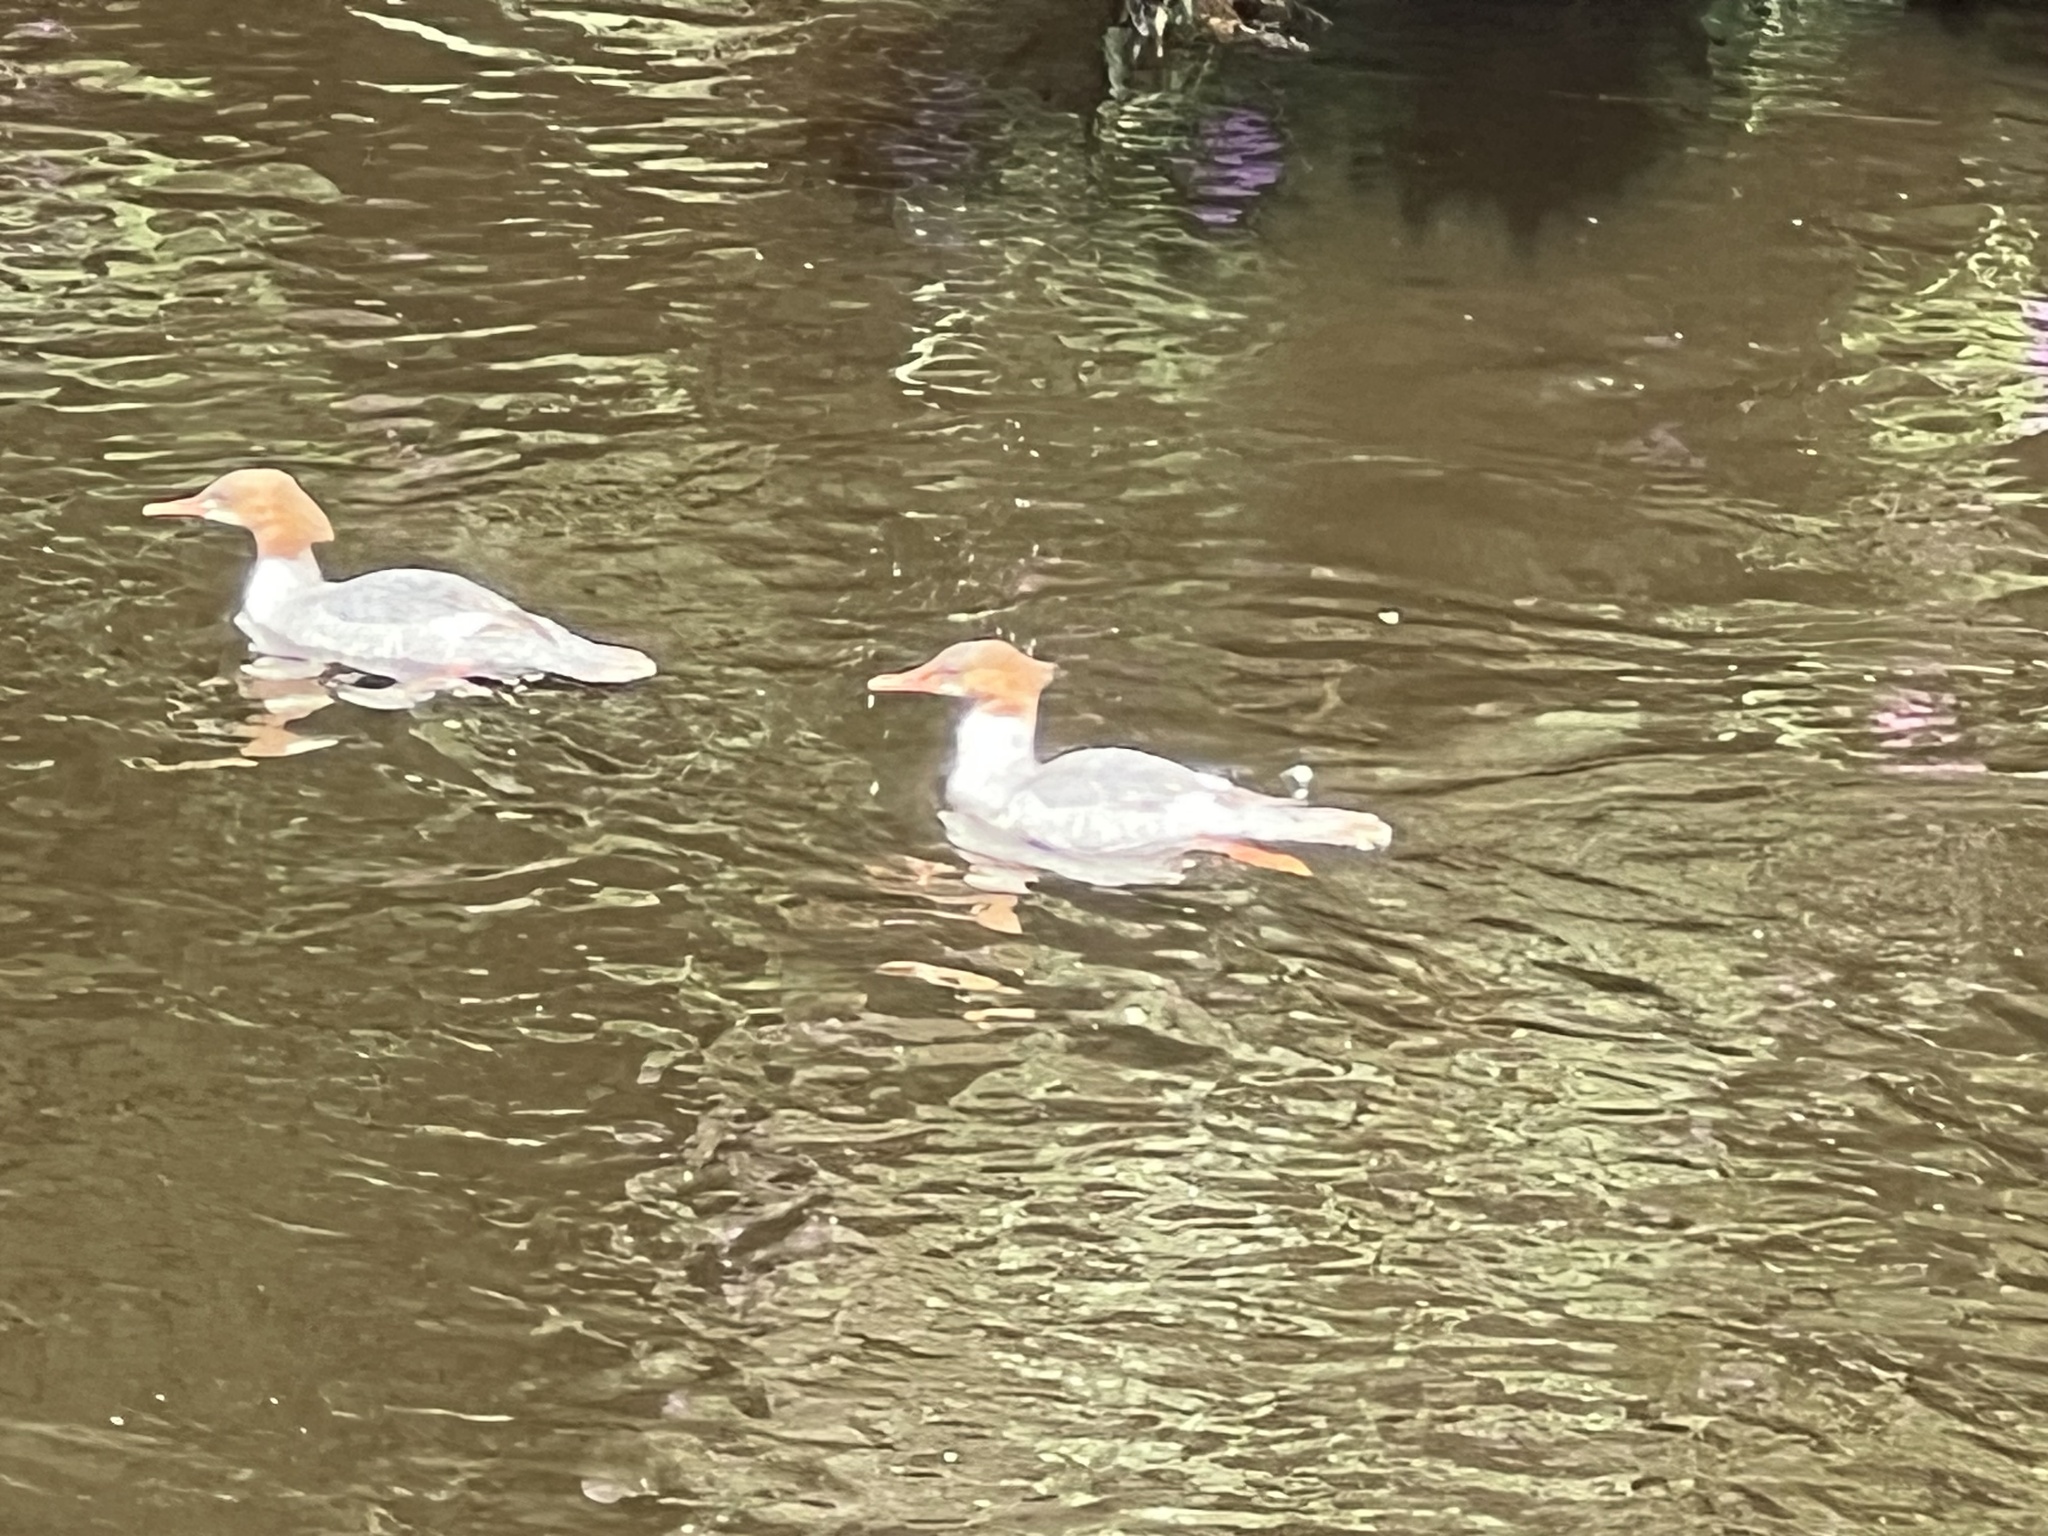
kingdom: Animalia
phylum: Chordata
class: Aves
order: Anseriformes
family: Anatidae
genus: Mergus
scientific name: Mergus merganser
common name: Common merganser
